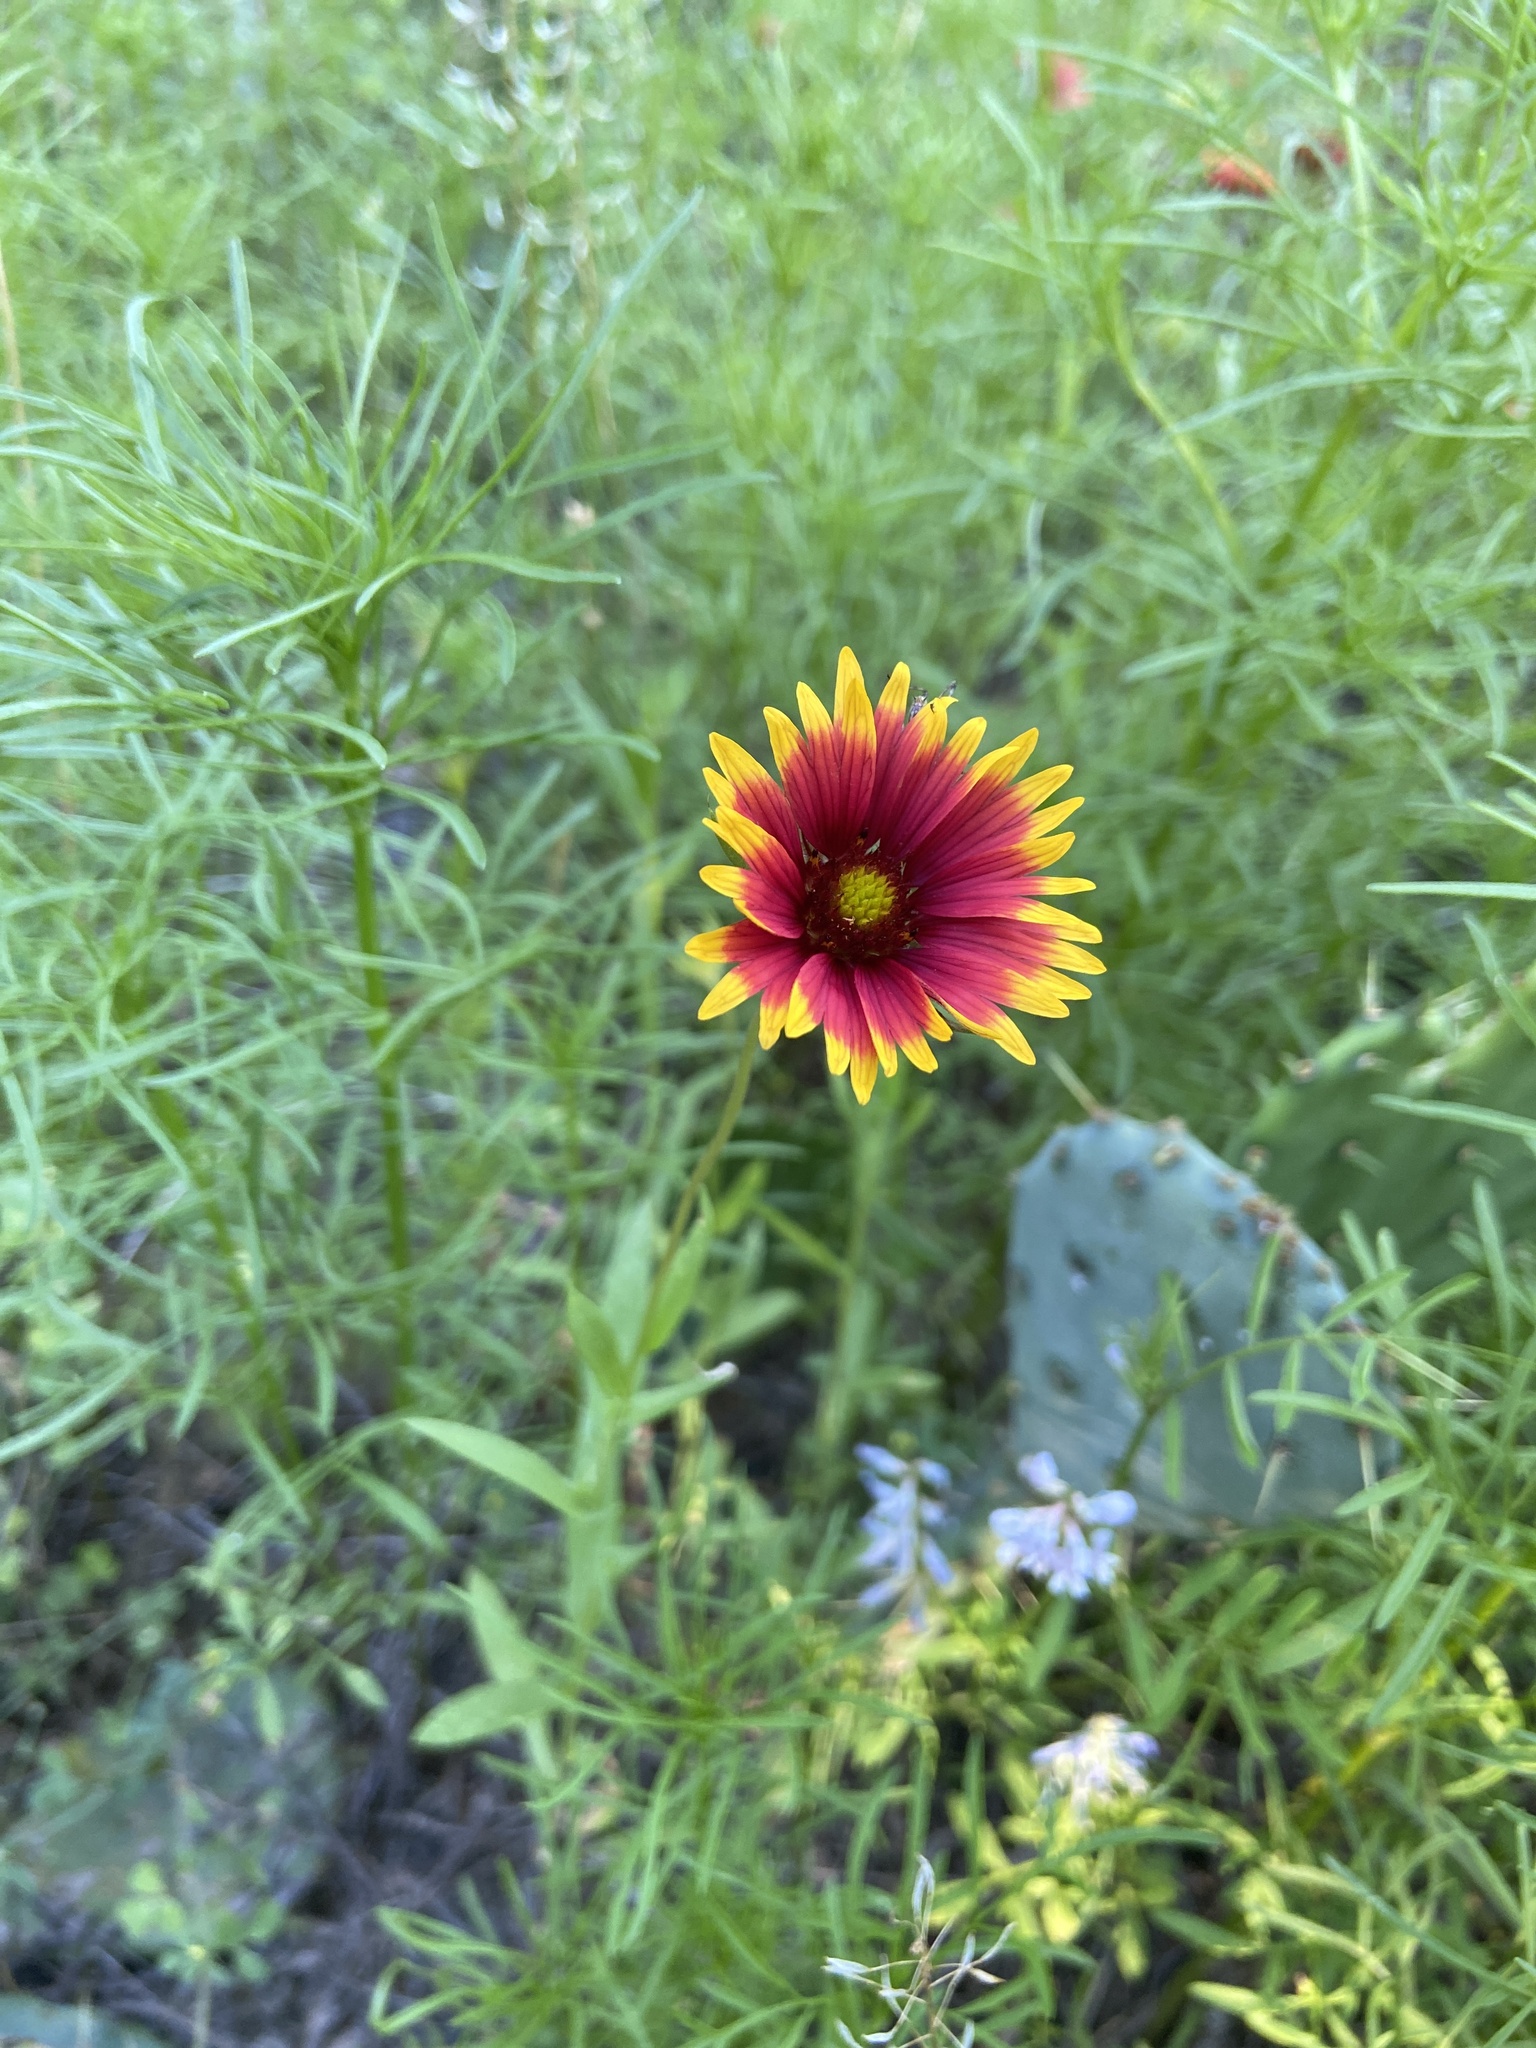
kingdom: Plantae
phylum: Tracheophyta
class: Magnoliopsida
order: Asterales
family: Asteraceae
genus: Gaillardia
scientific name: Gaillardia pulchella
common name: Firewheel
